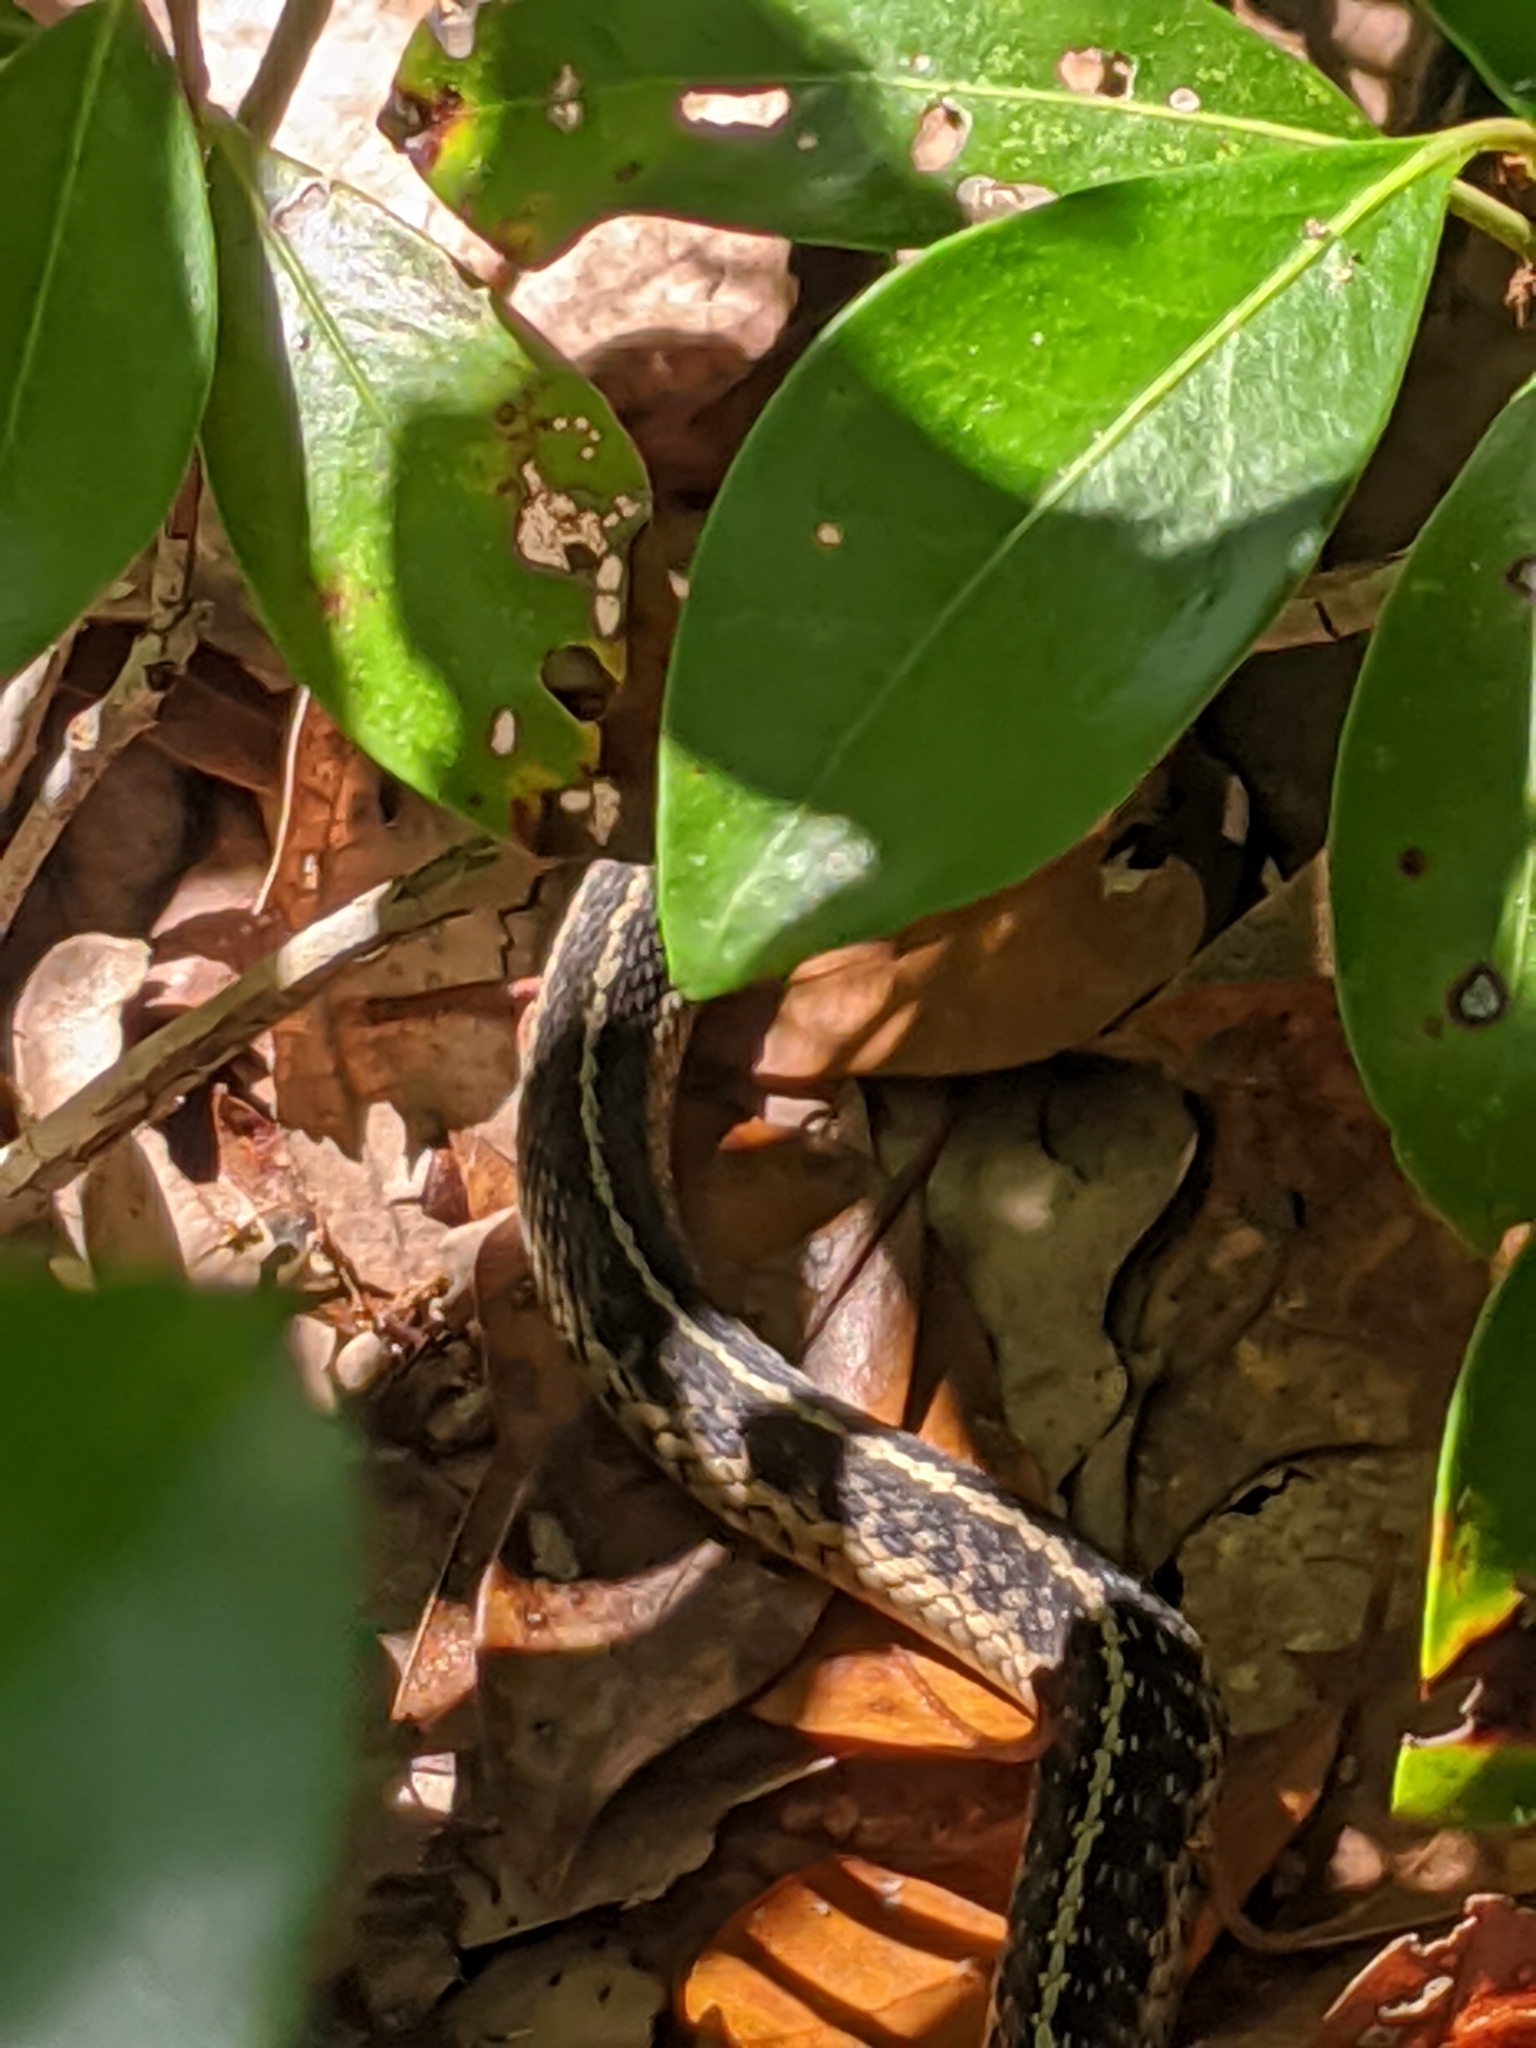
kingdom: Animalia
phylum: Chordata
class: Squamata
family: Colubridae
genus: Thamnophis
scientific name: Thamnophis sirtalis
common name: Common garter snake
